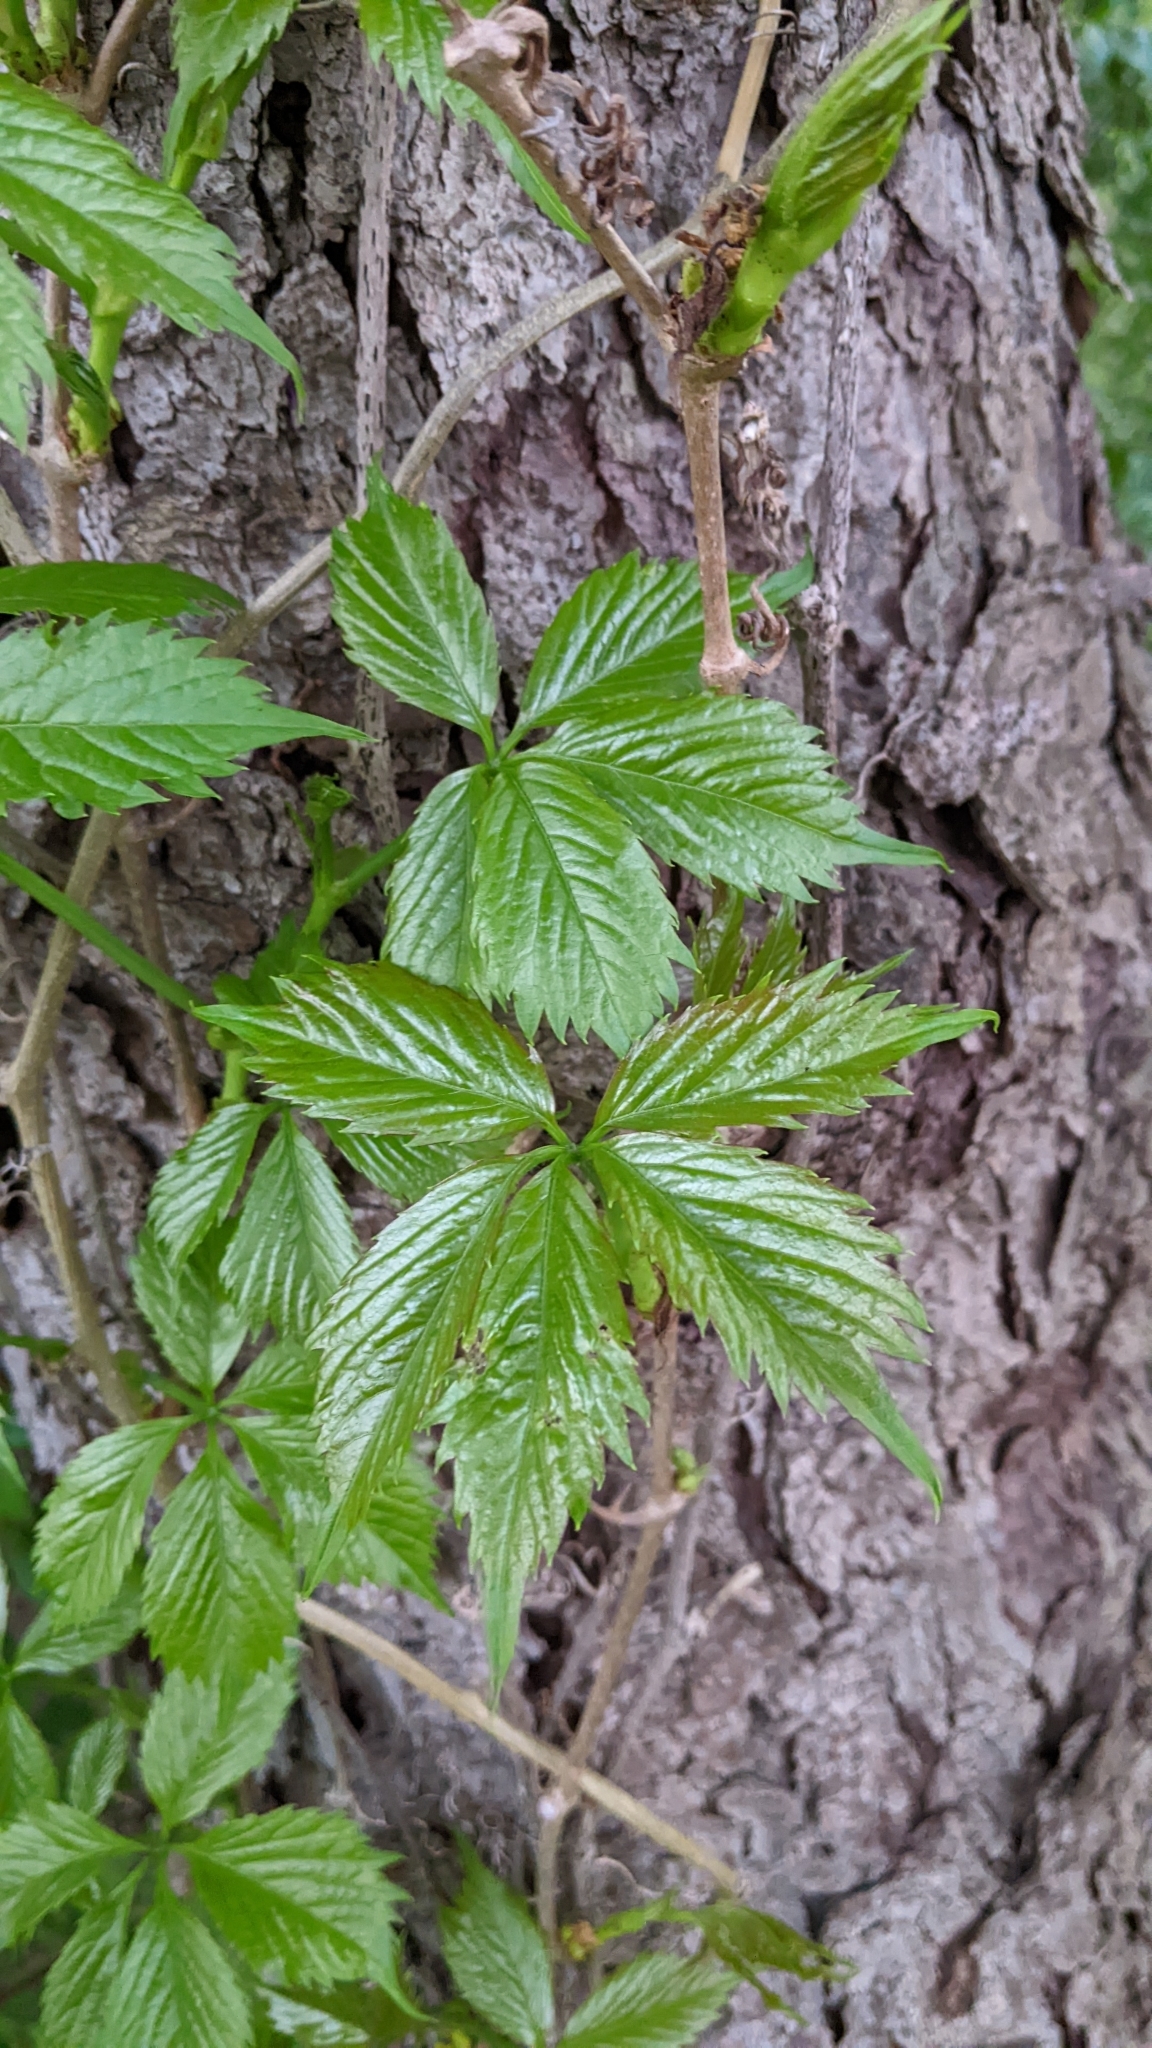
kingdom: Plantae
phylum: Tracheophyta
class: Magnoliopsida
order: Vitales
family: Vitaceae
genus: Parthenocissus
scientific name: Parthenocissus quinquefolia
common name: Virginia-creeper
